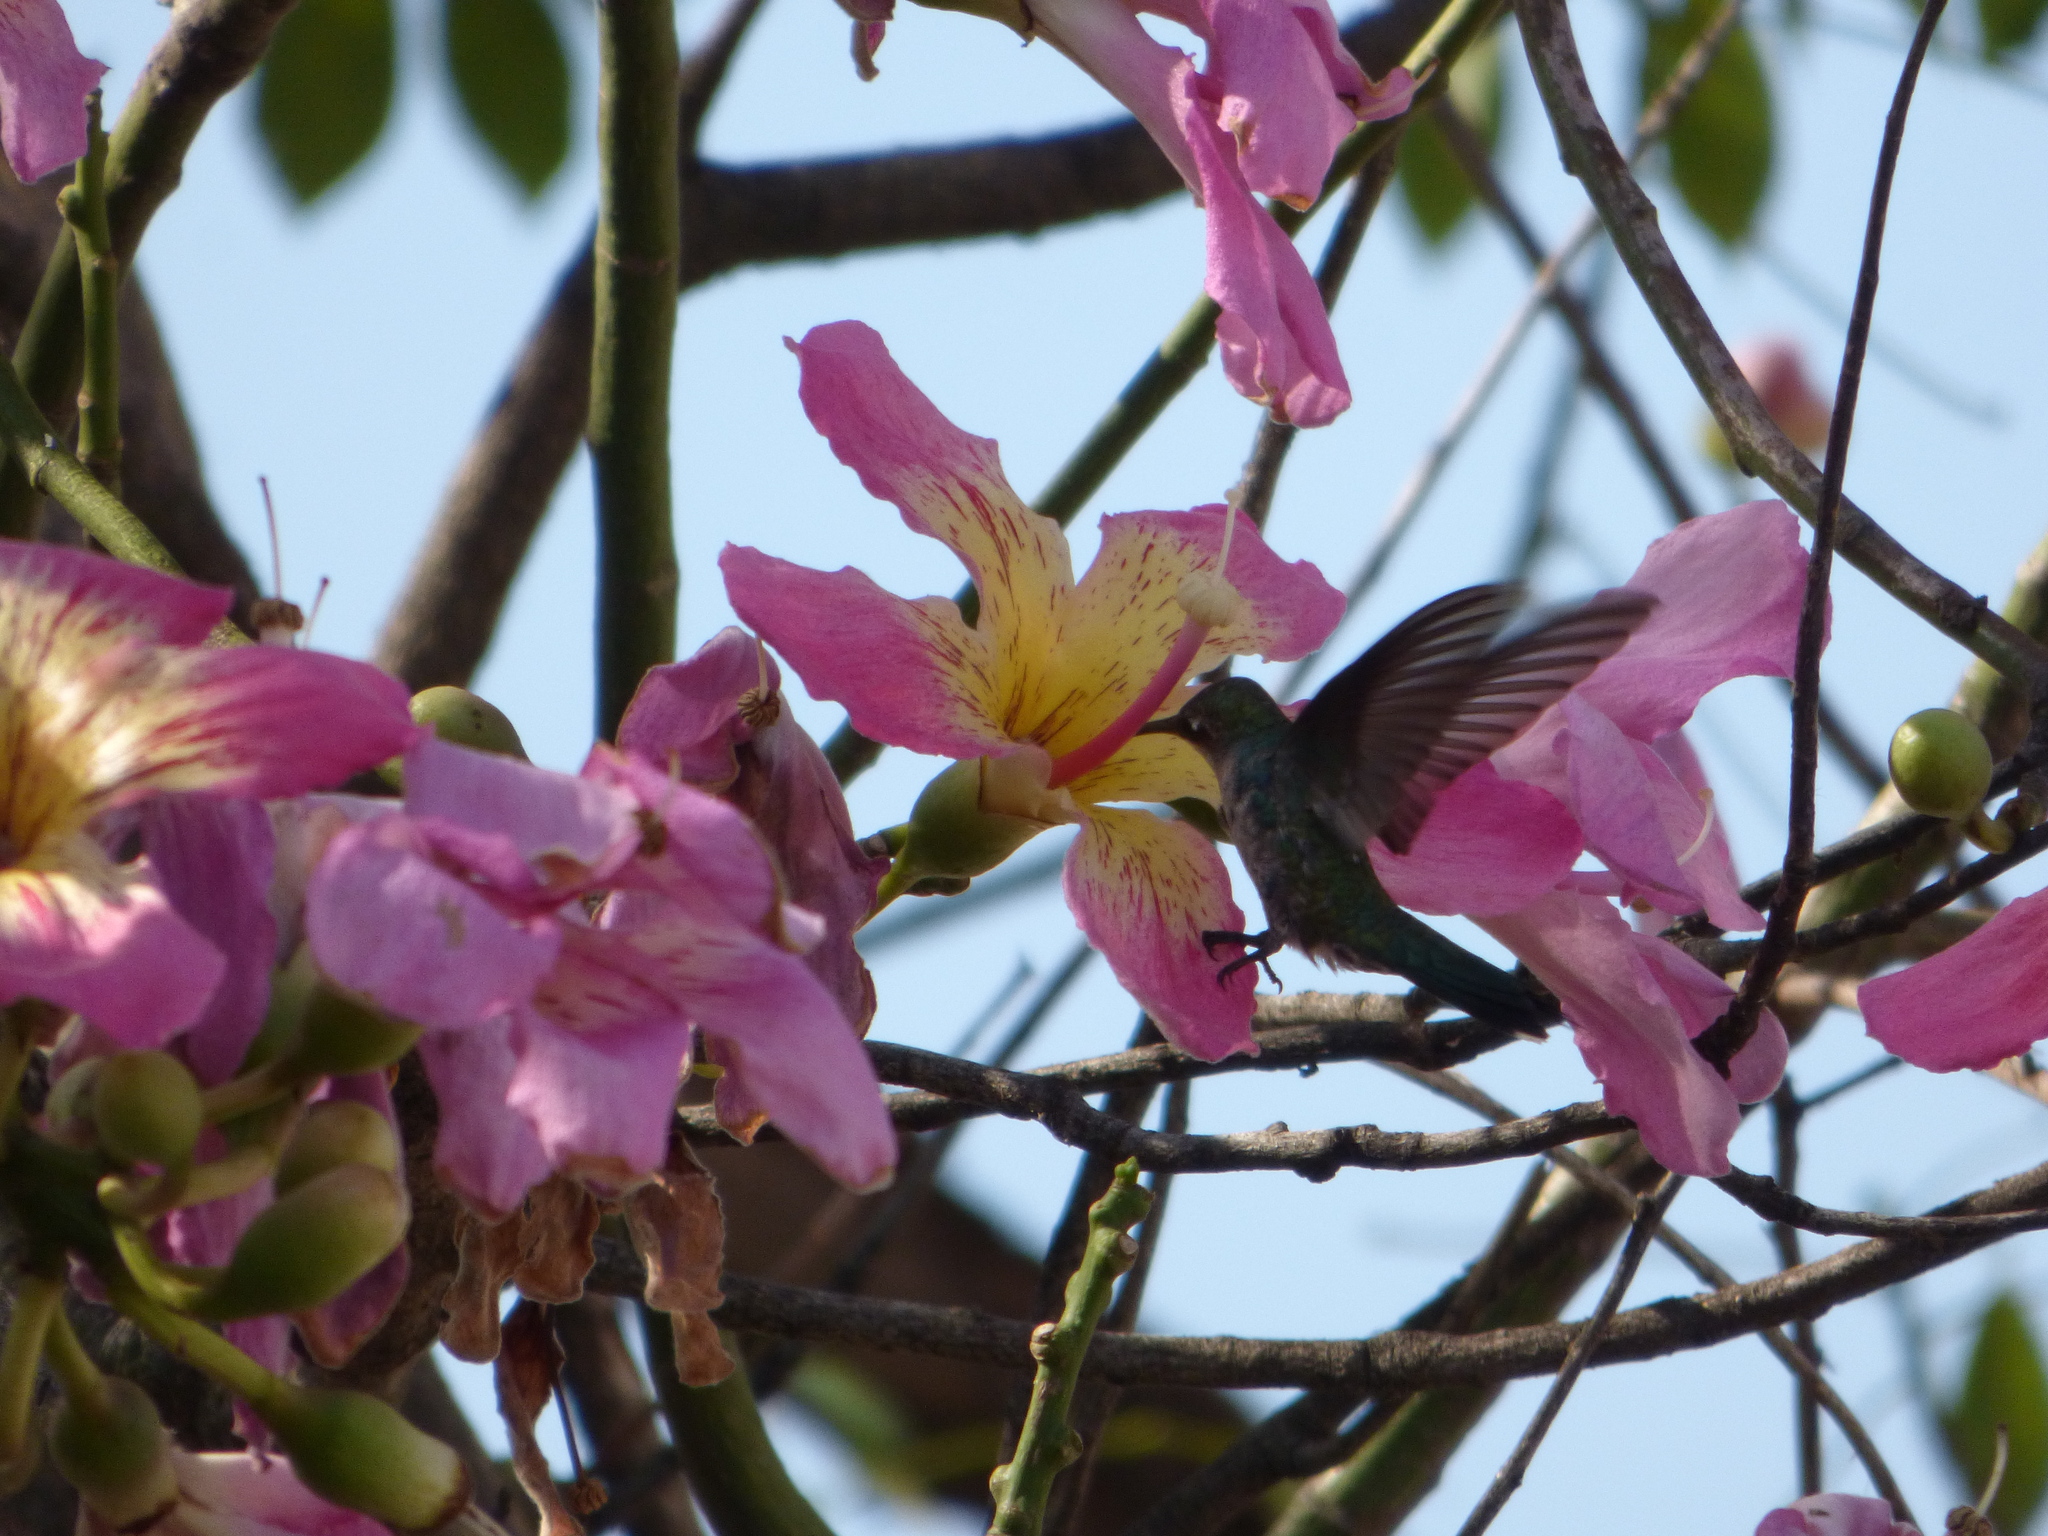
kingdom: Animalia
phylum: Chordata
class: Aves
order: Apodiformes
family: Trochilidae
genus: Heliomaster
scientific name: Heliomaster furcifer
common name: Blue-tufted starthroat
